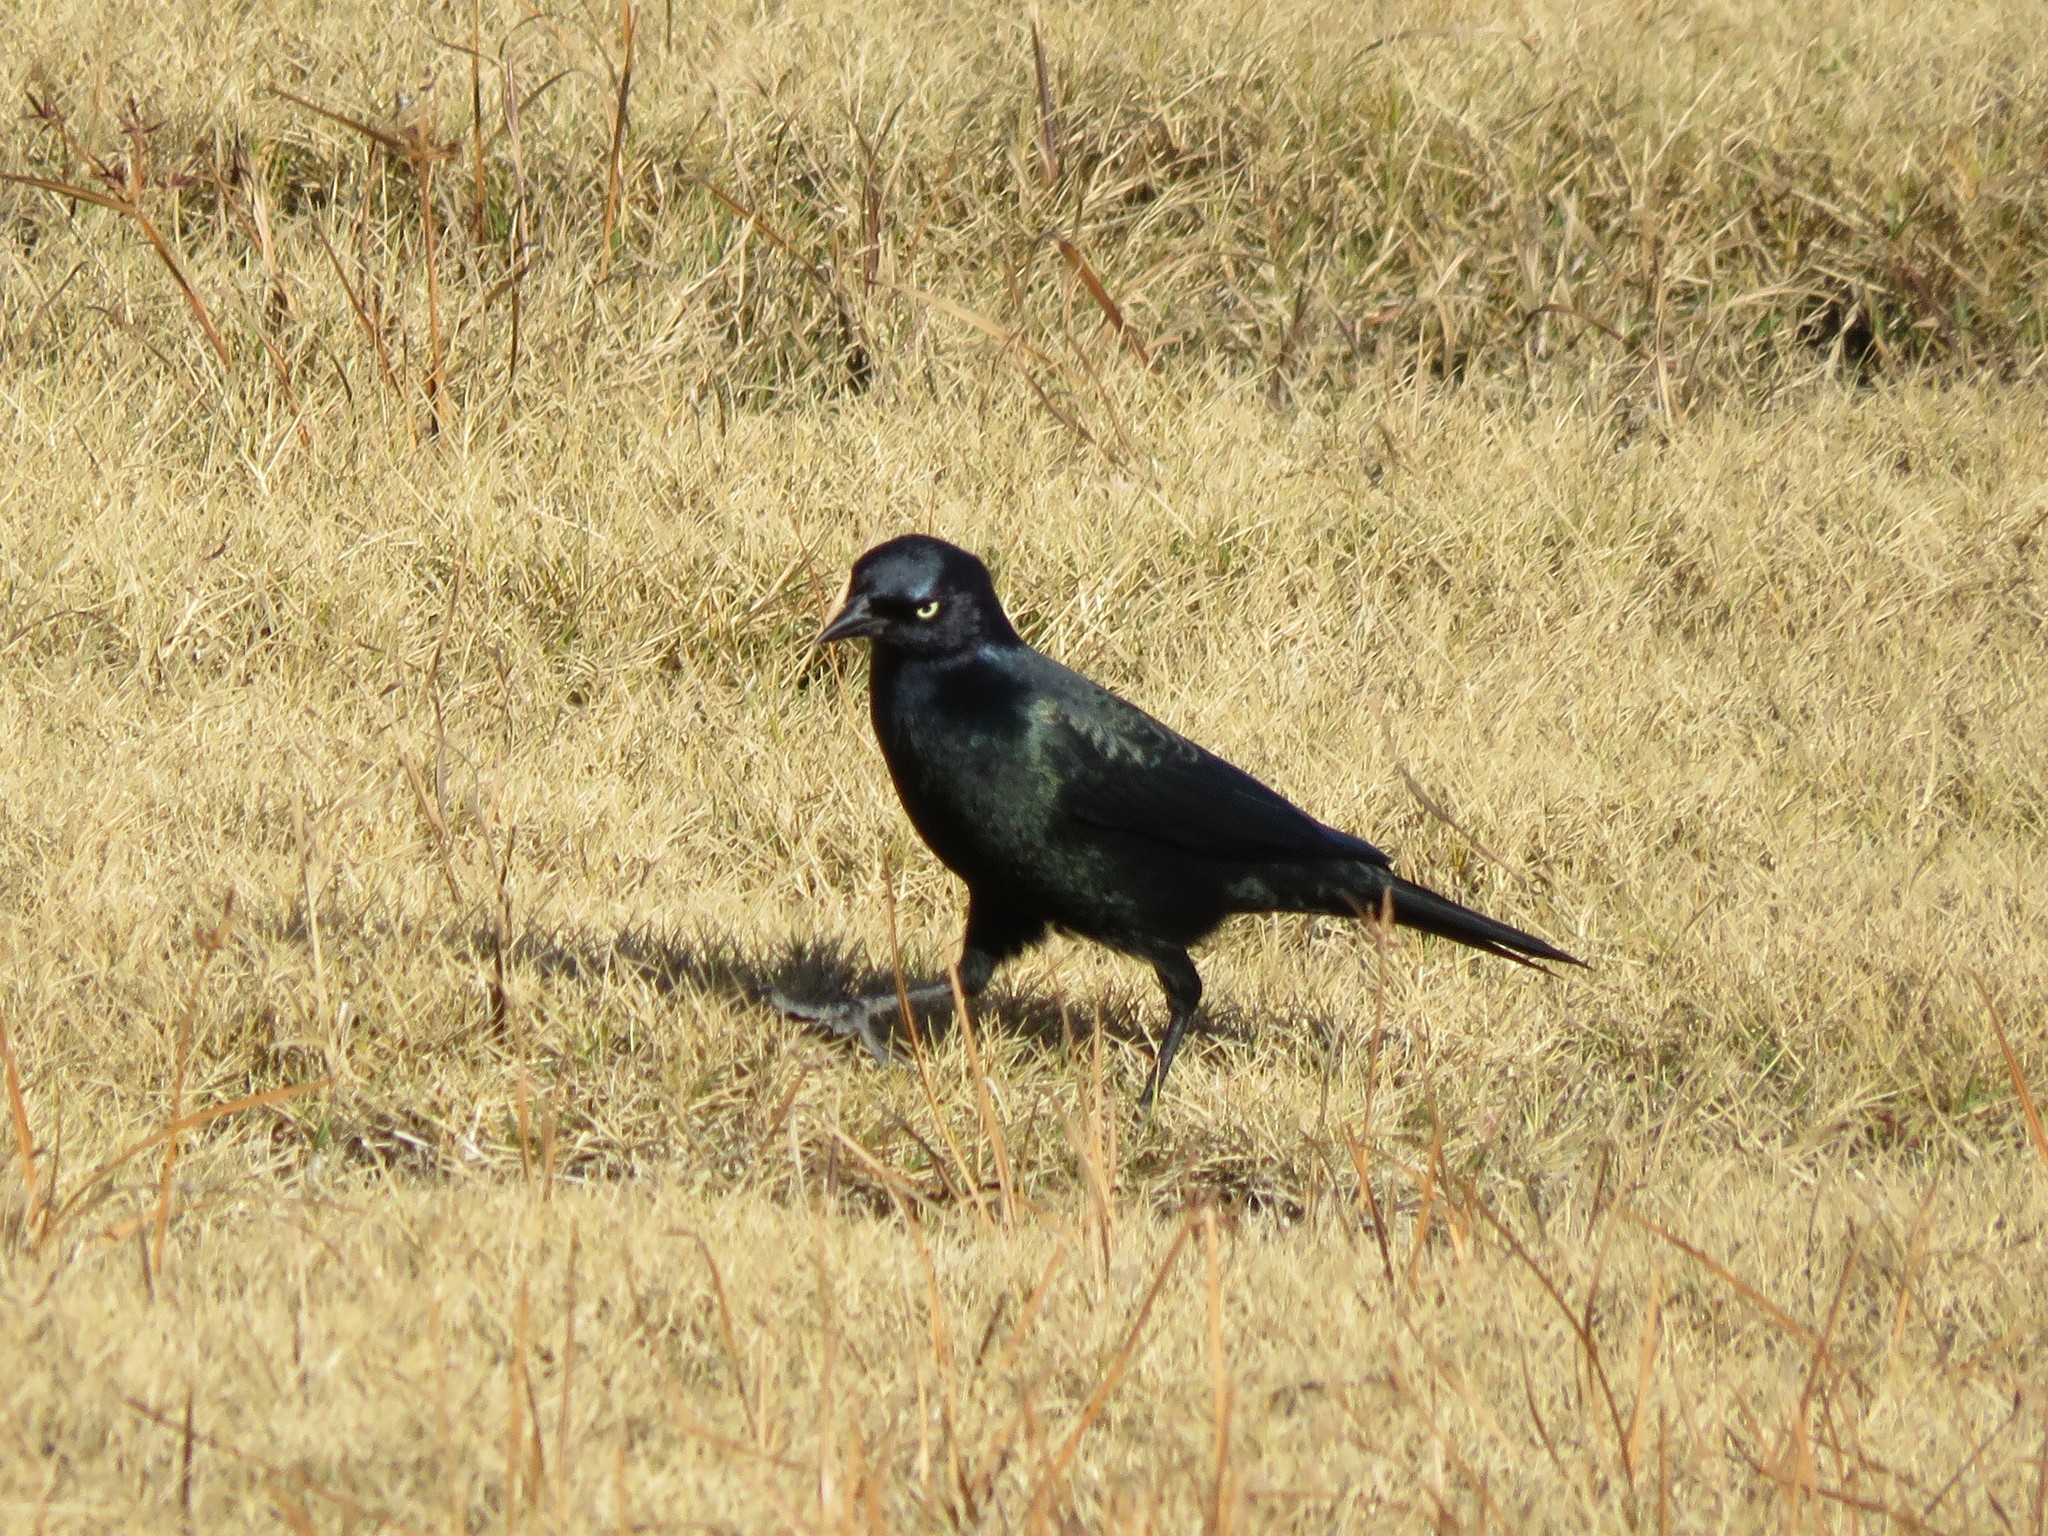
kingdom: Animalia
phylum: Chordata
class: Aves
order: Passeriformes
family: Icteridae
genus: Euphagus
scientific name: Euphagus cyanocephalus
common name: Brewer's blackbird
